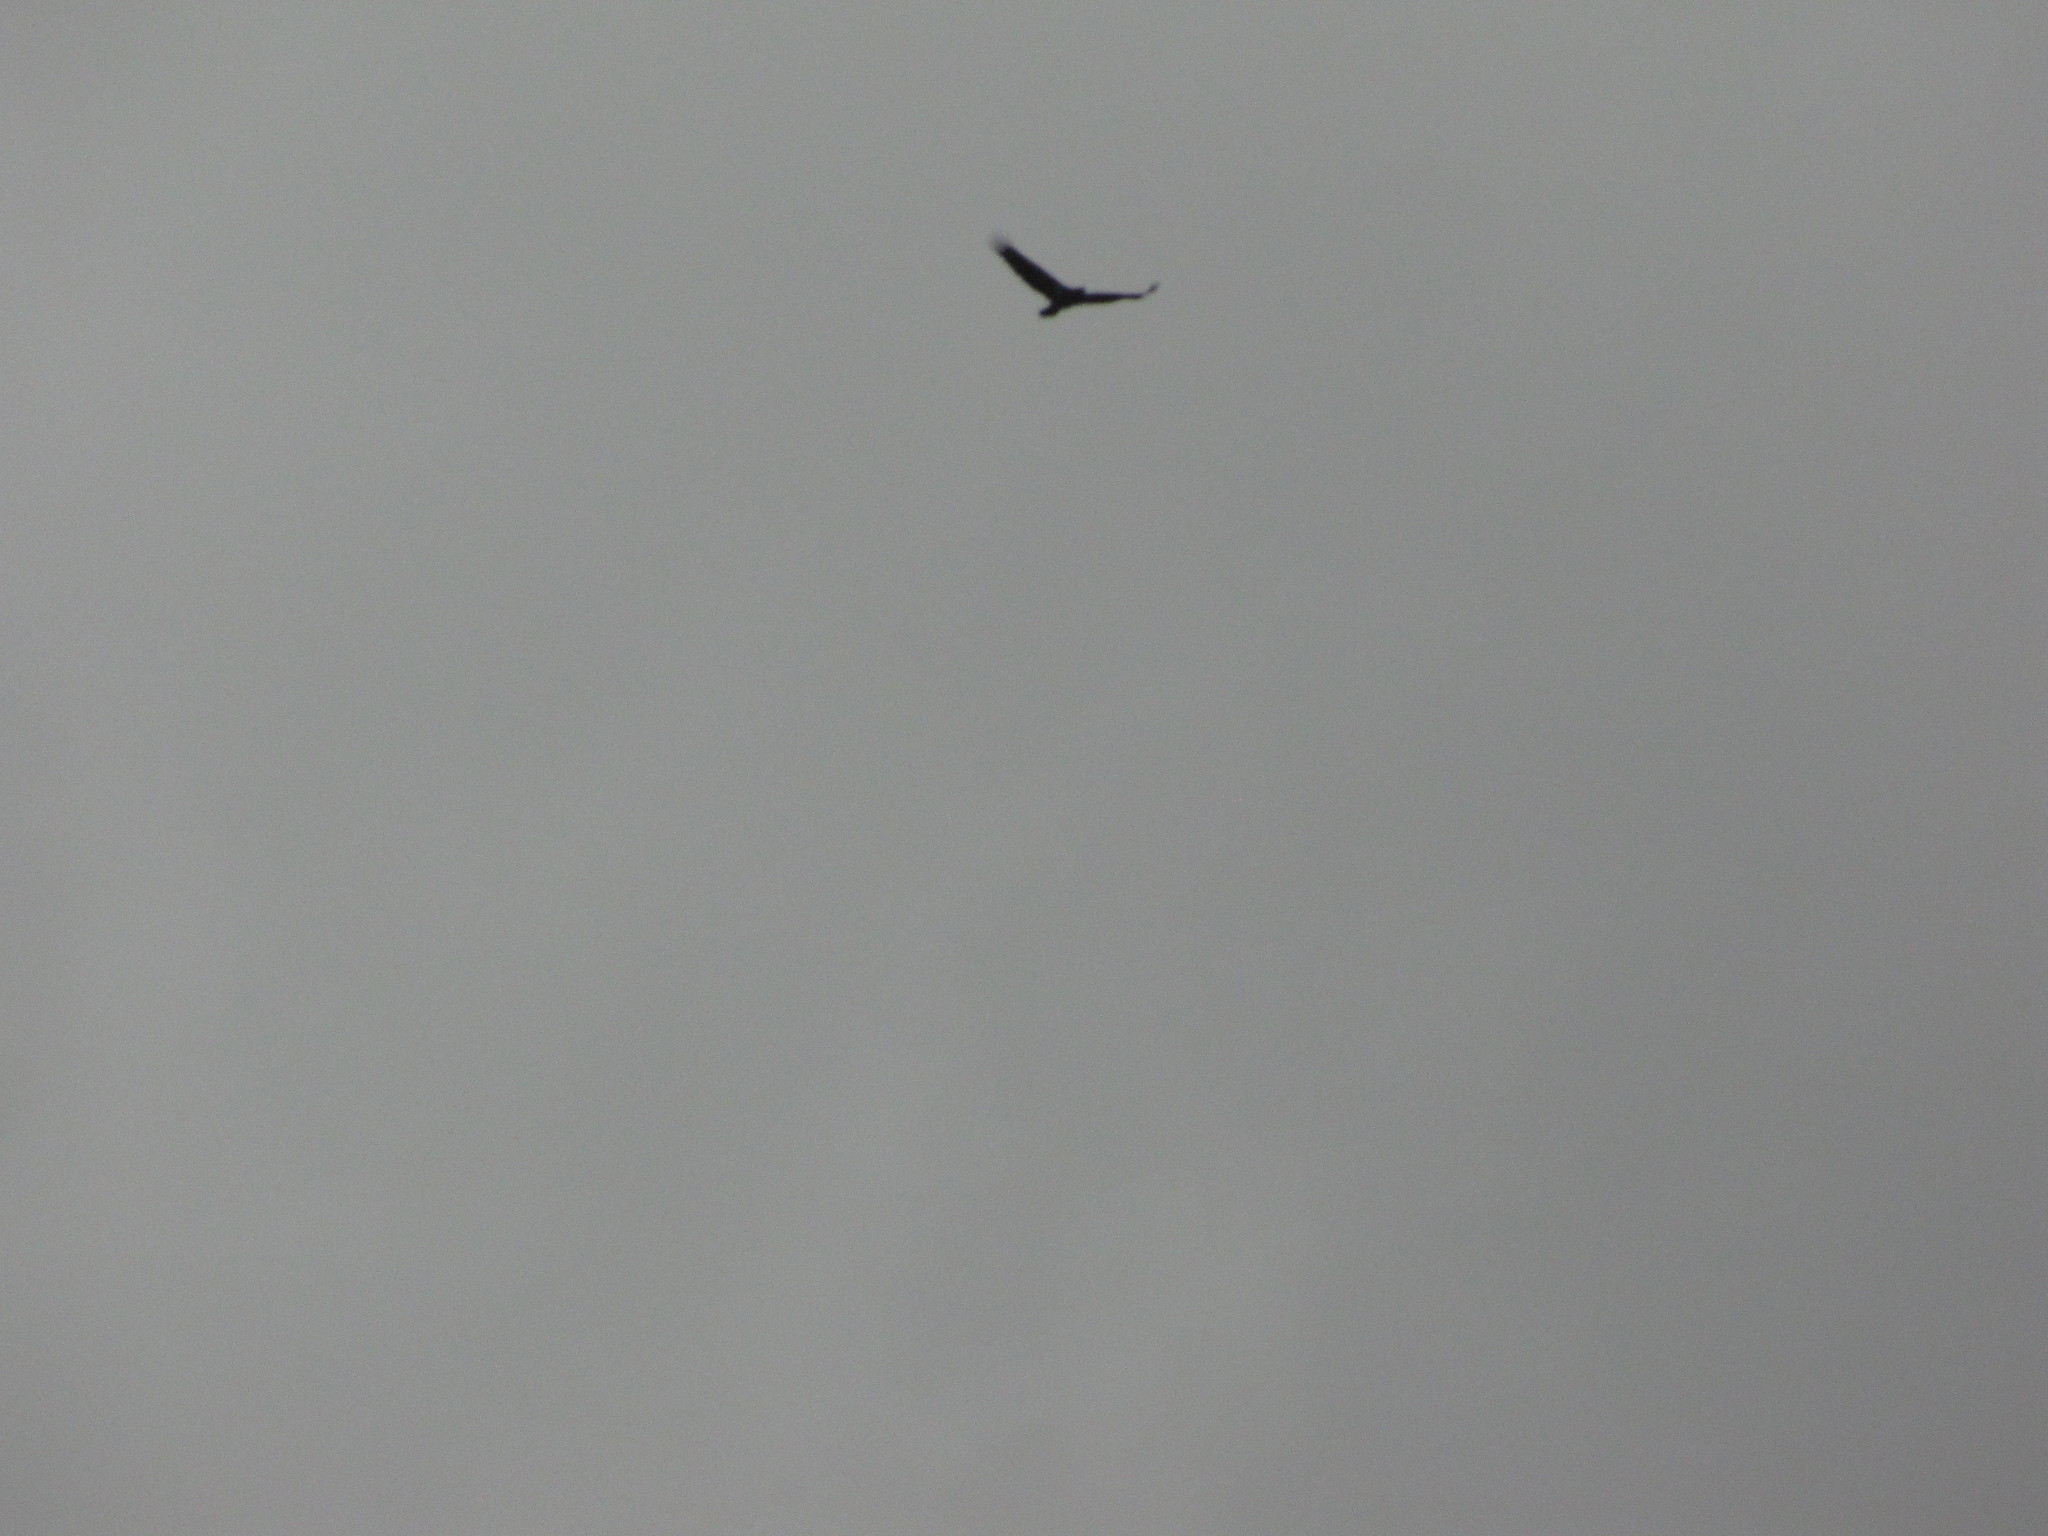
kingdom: Animalia
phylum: Chordata
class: Aves
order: Accipitriformes
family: Accipitridae
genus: Haliaeetus
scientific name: Haliaeetus leucocephalus
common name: Bald eagle
